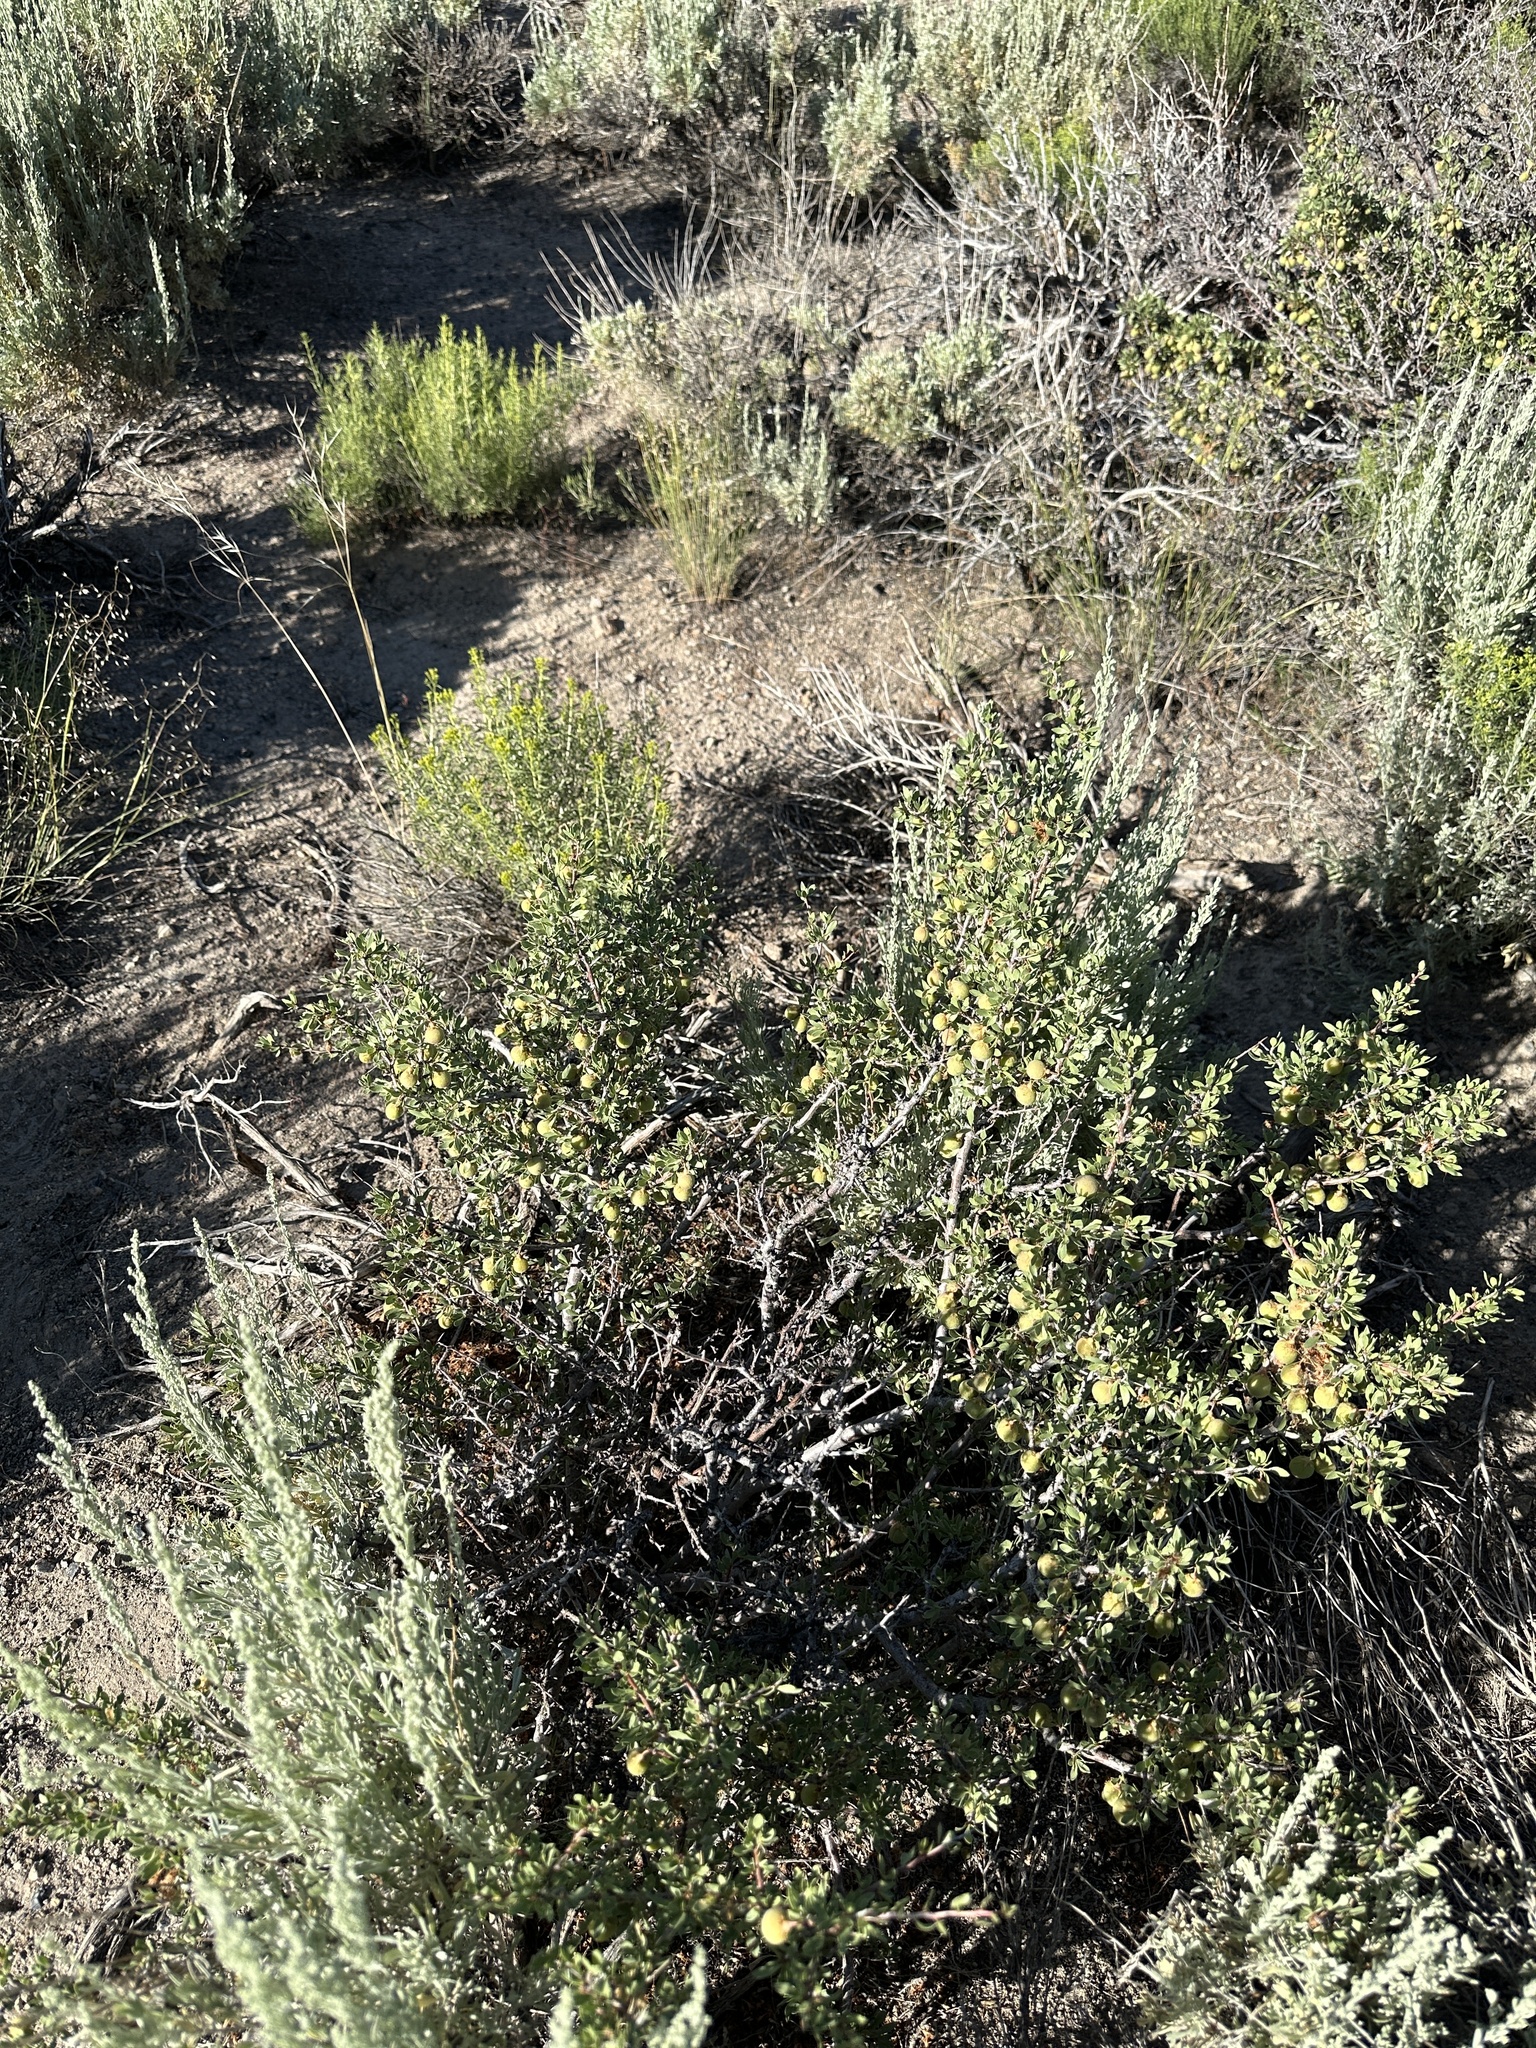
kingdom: Plantae
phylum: Tracheophyta
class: Magnoliopsida
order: Rosales
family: Rosaceae
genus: Prunus
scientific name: Prunus andersonii
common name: Desert peach
